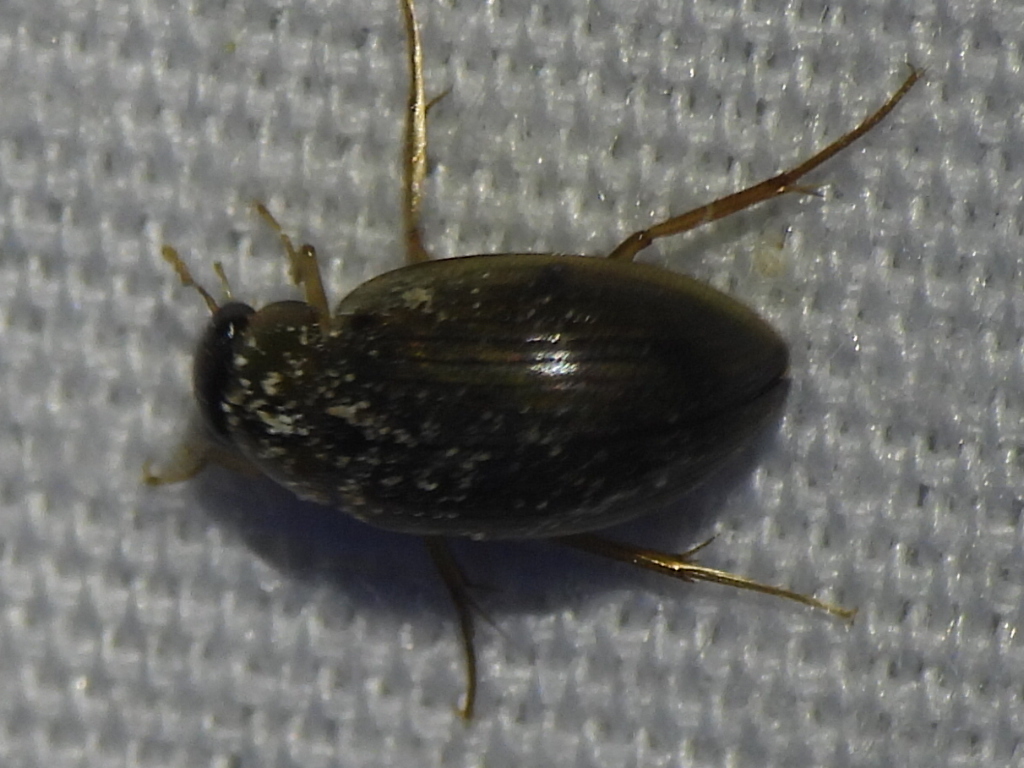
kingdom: Animalia
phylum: Arthropoda
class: Insecta
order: Coleoptera
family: Hydrophilidae
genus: Berosus
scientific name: Berosus
